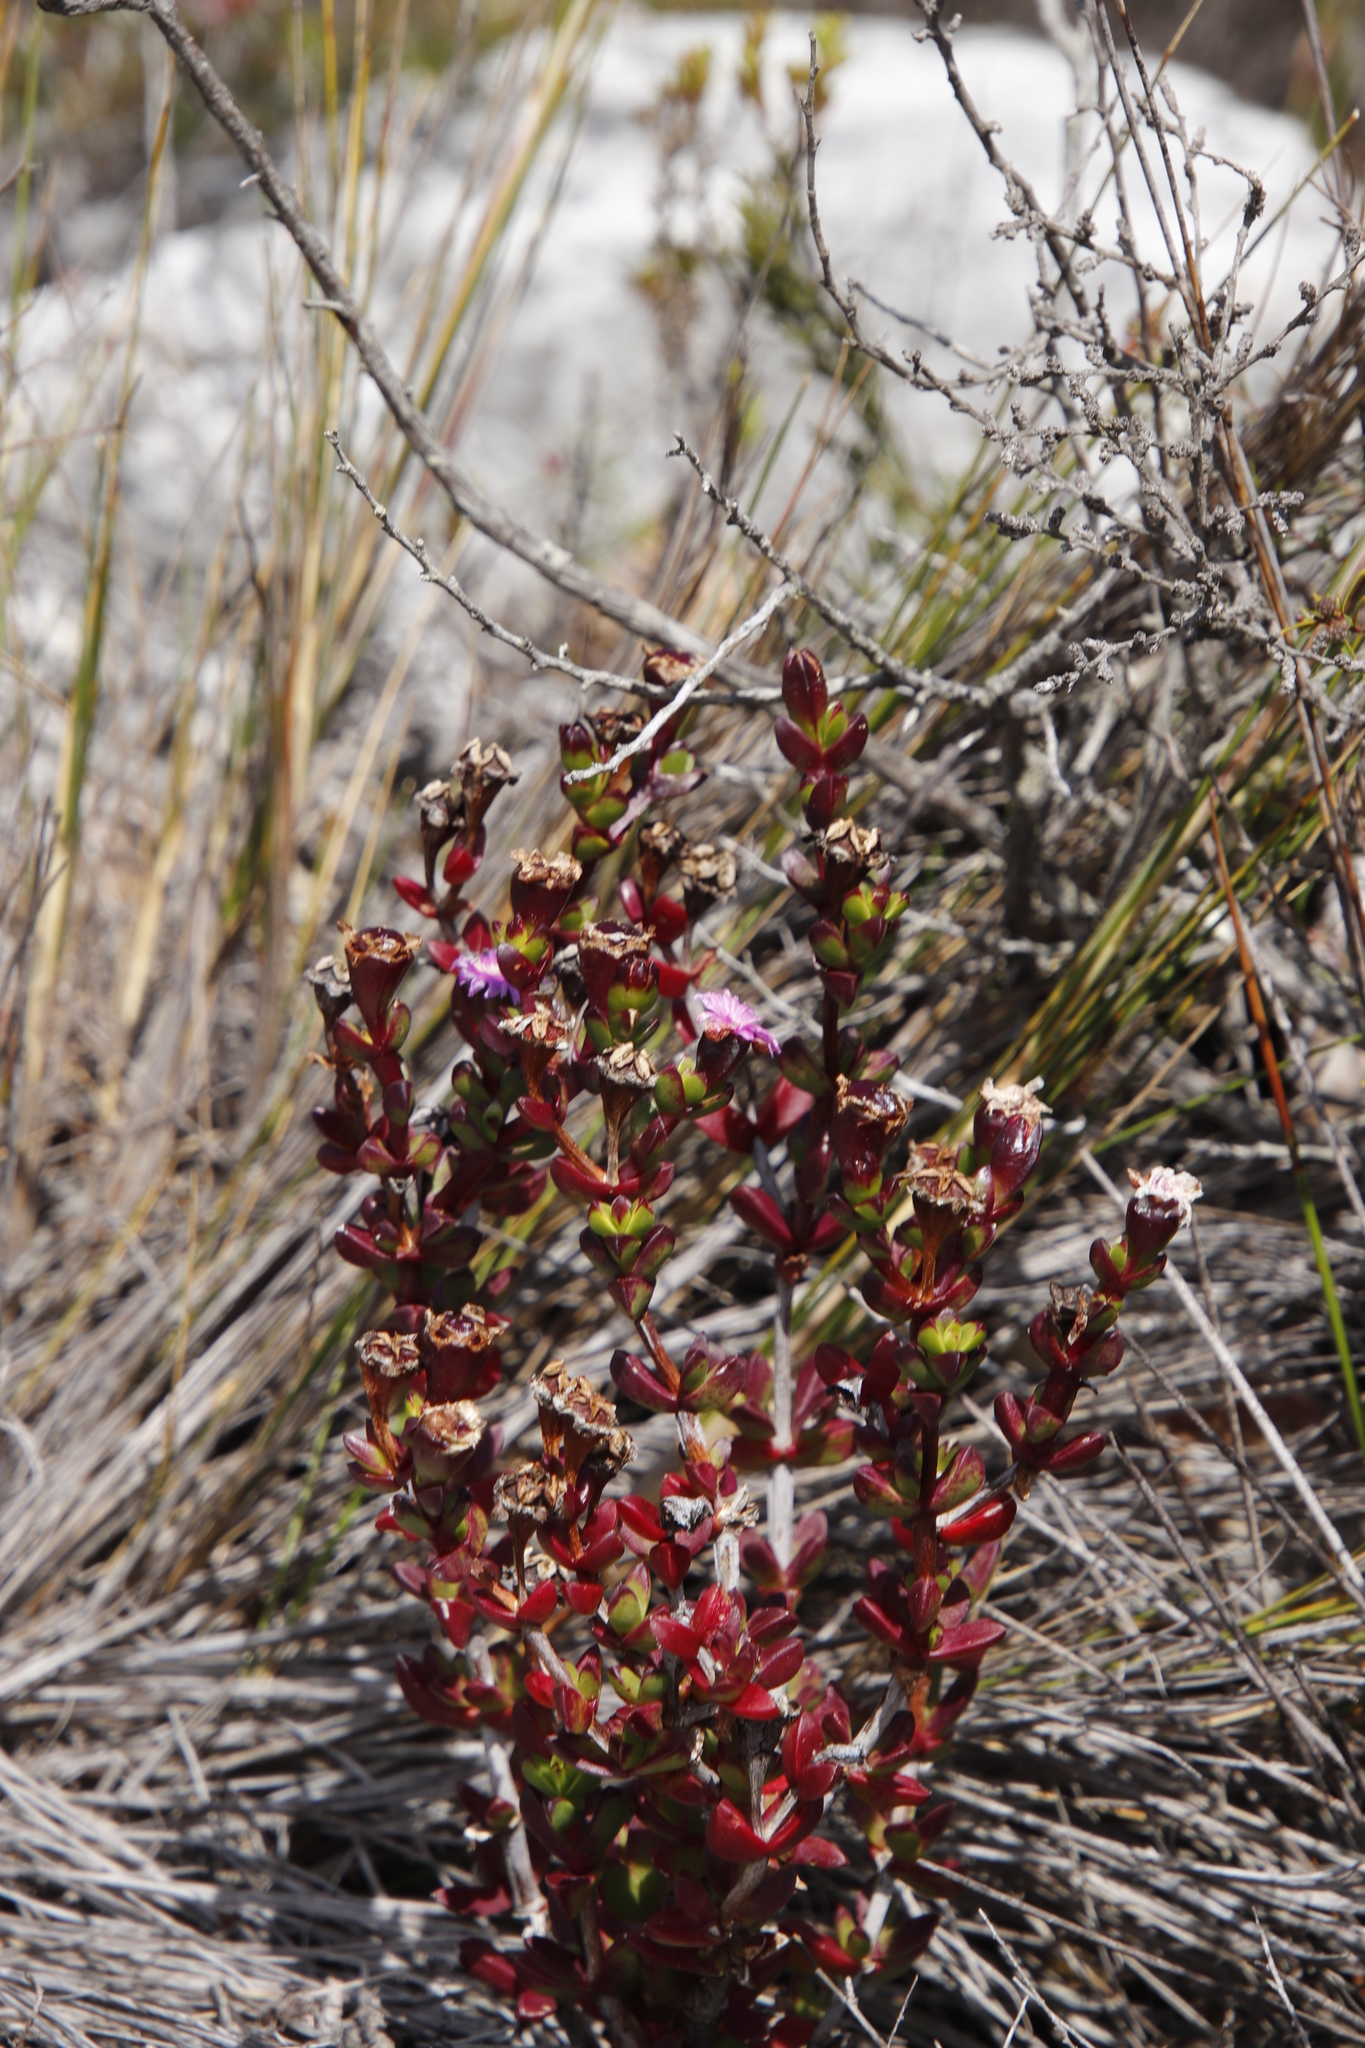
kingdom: Plantae
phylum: Tracheophyta
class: Magnoliopsida
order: Caryophyllales
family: Aizoaceae
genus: Erepsia
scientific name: Erepsia inclaudens
